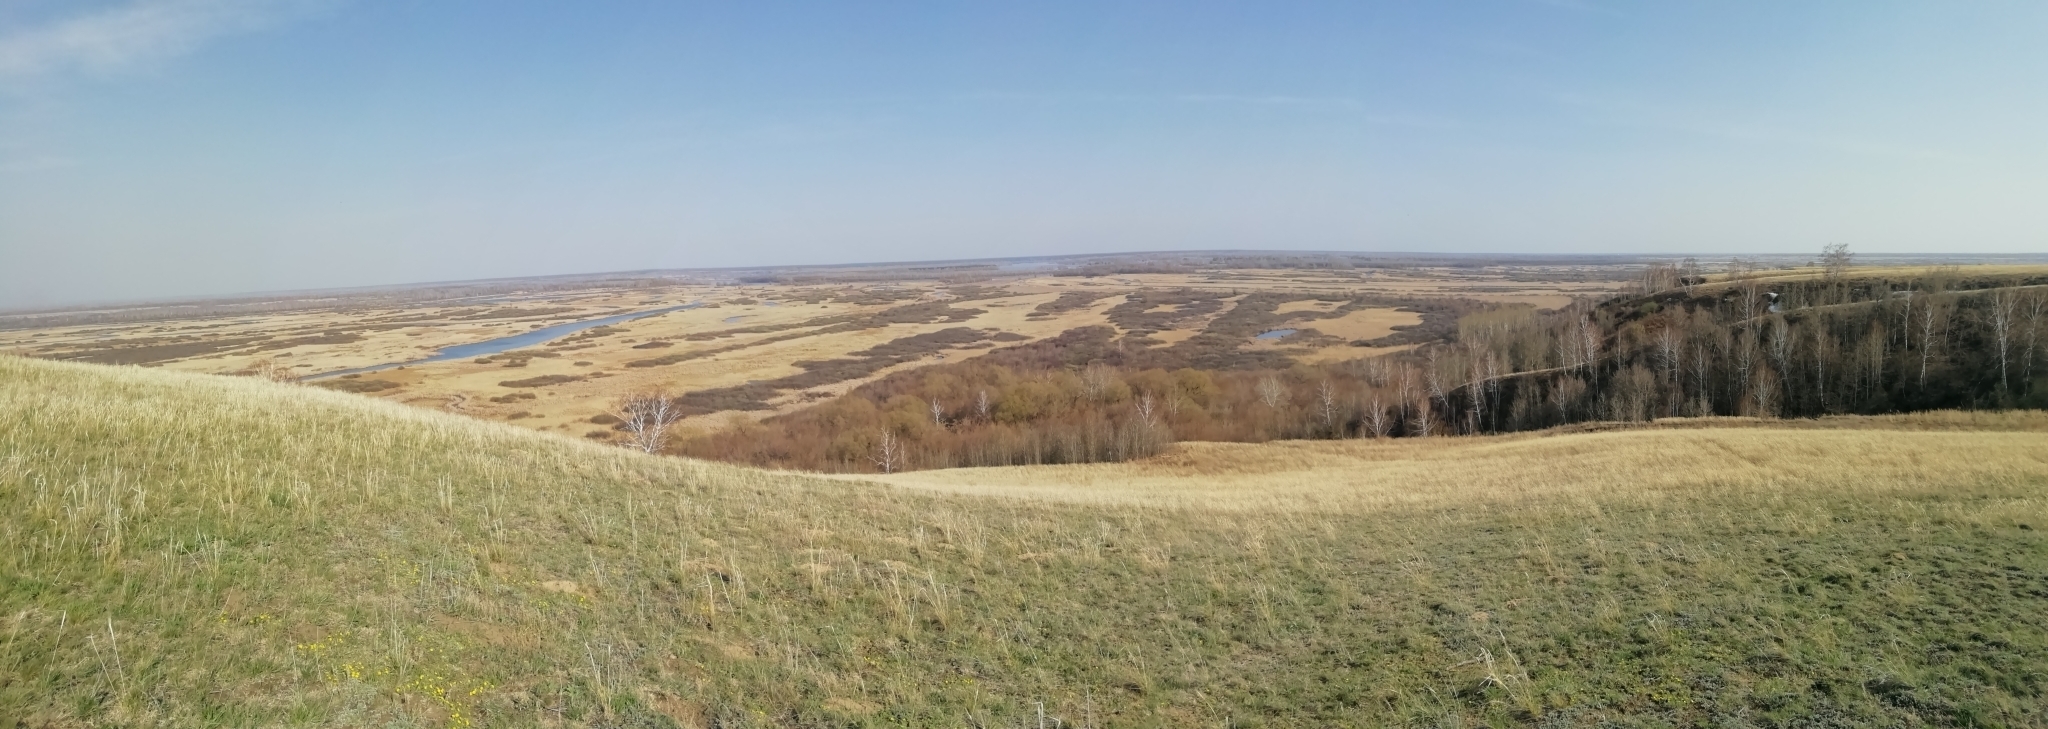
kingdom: Animalia
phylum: Arthropoda
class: Insecta
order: Hymenoptera
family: Vespidae
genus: Vespula
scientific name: Vespula rufa
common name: Red wasp
